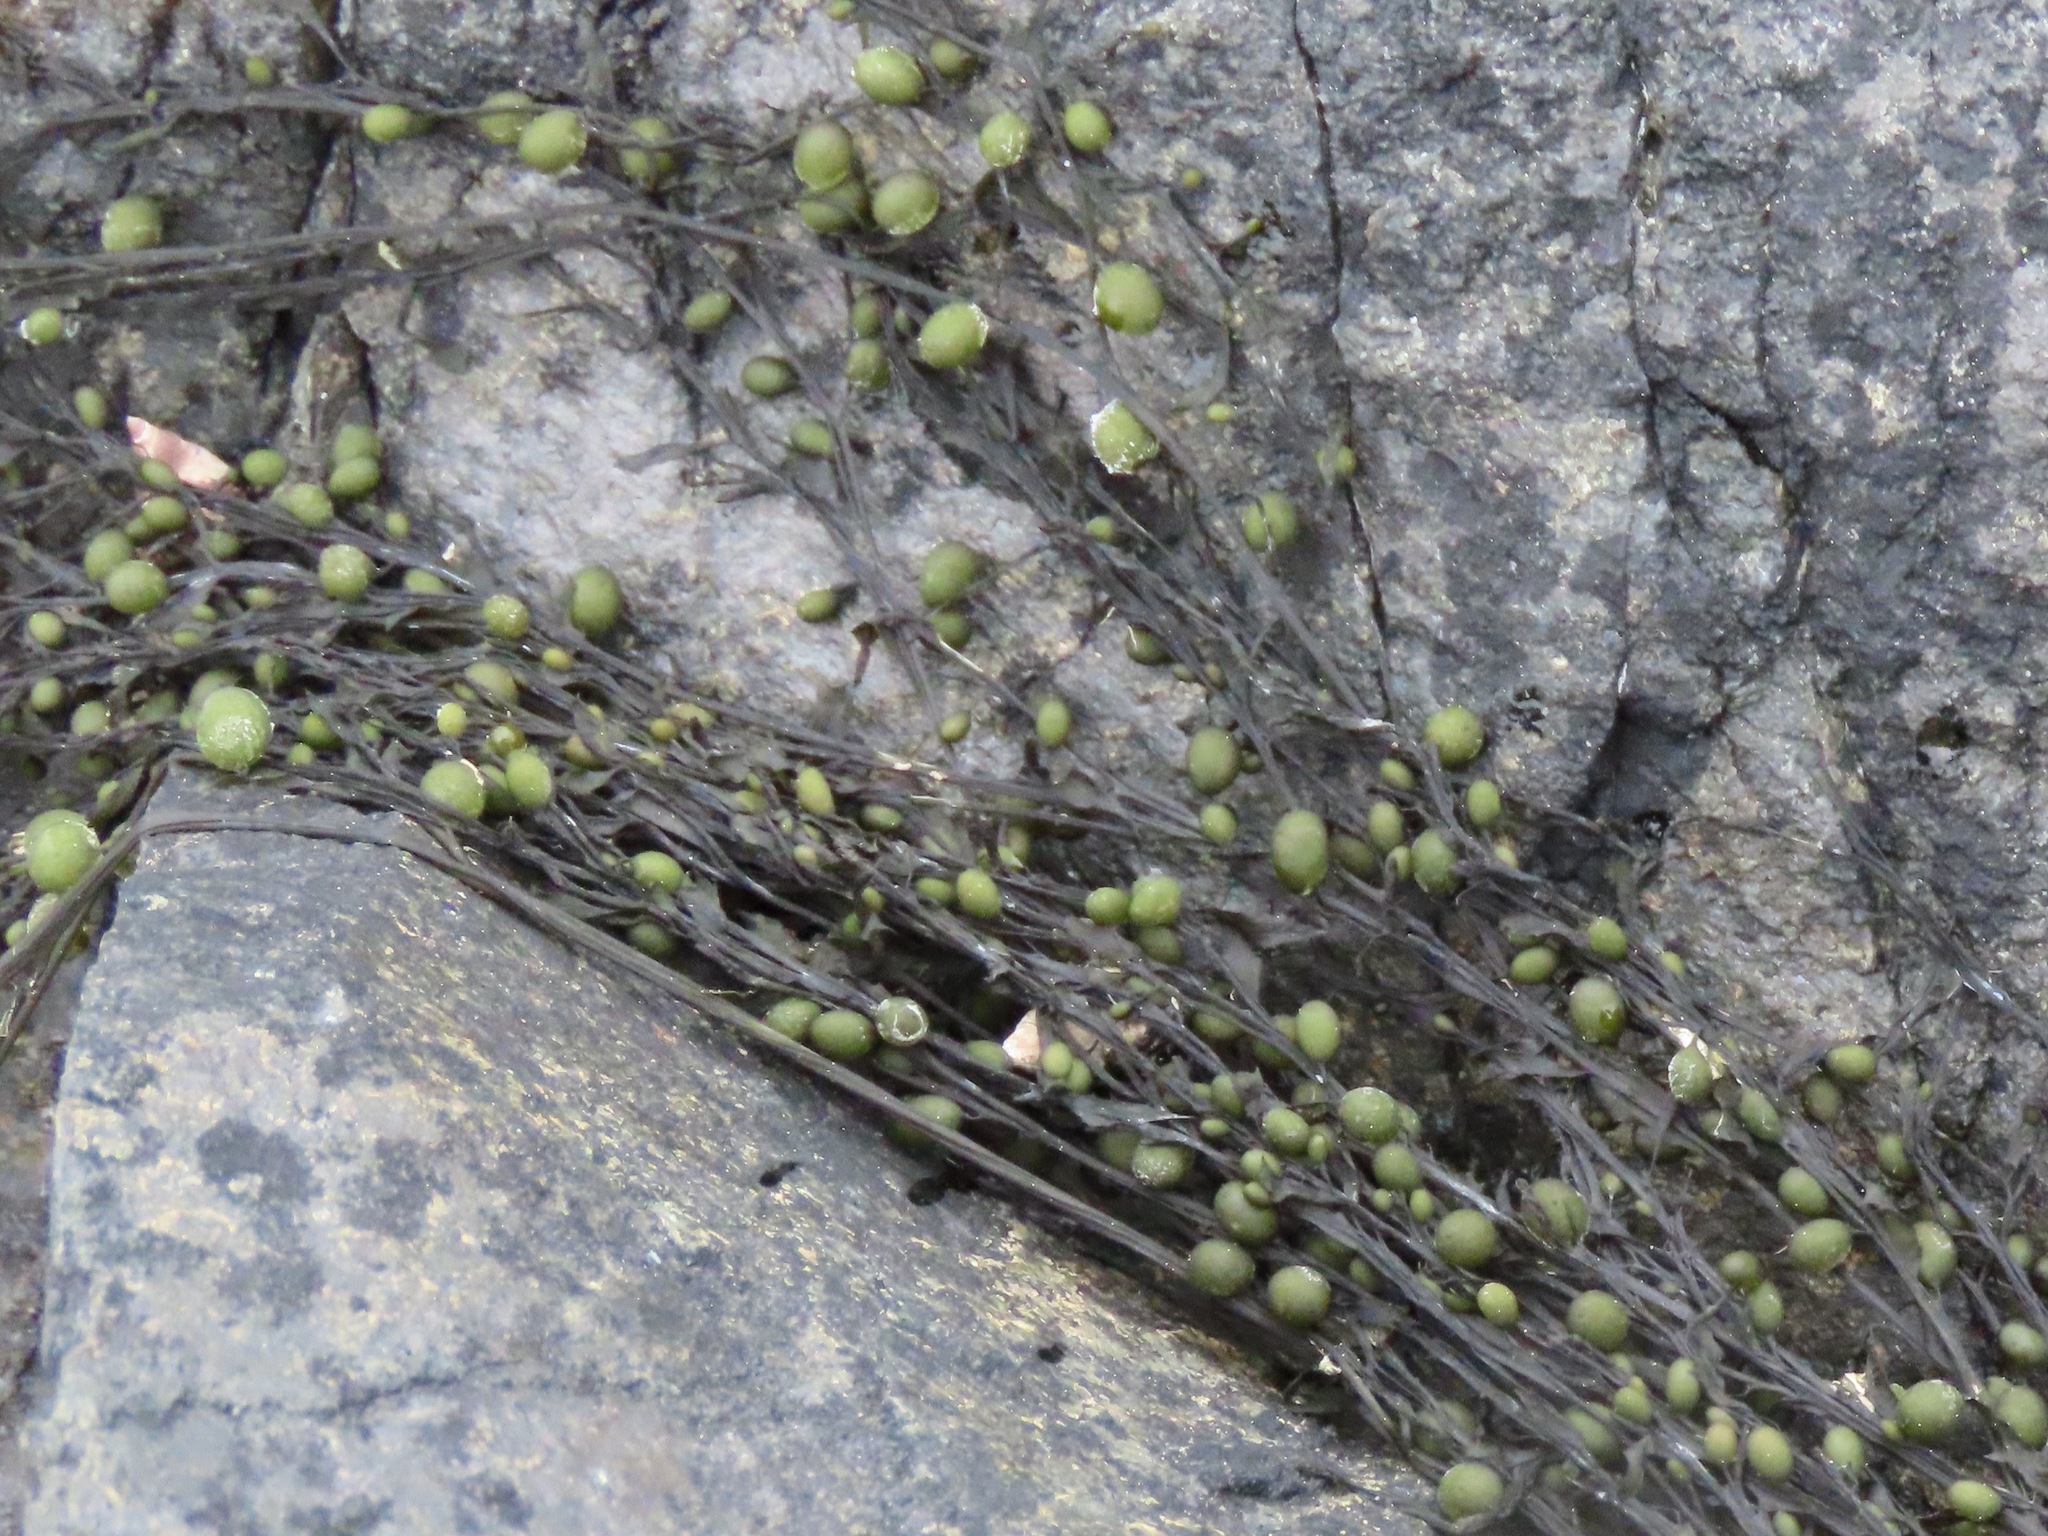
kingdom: Chromista
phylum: Ochrophyta
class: Phaeophyceae
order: Fucales
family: Sargassaceae
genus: Sargassum
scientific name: Sargassum muticum
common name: Japweed
